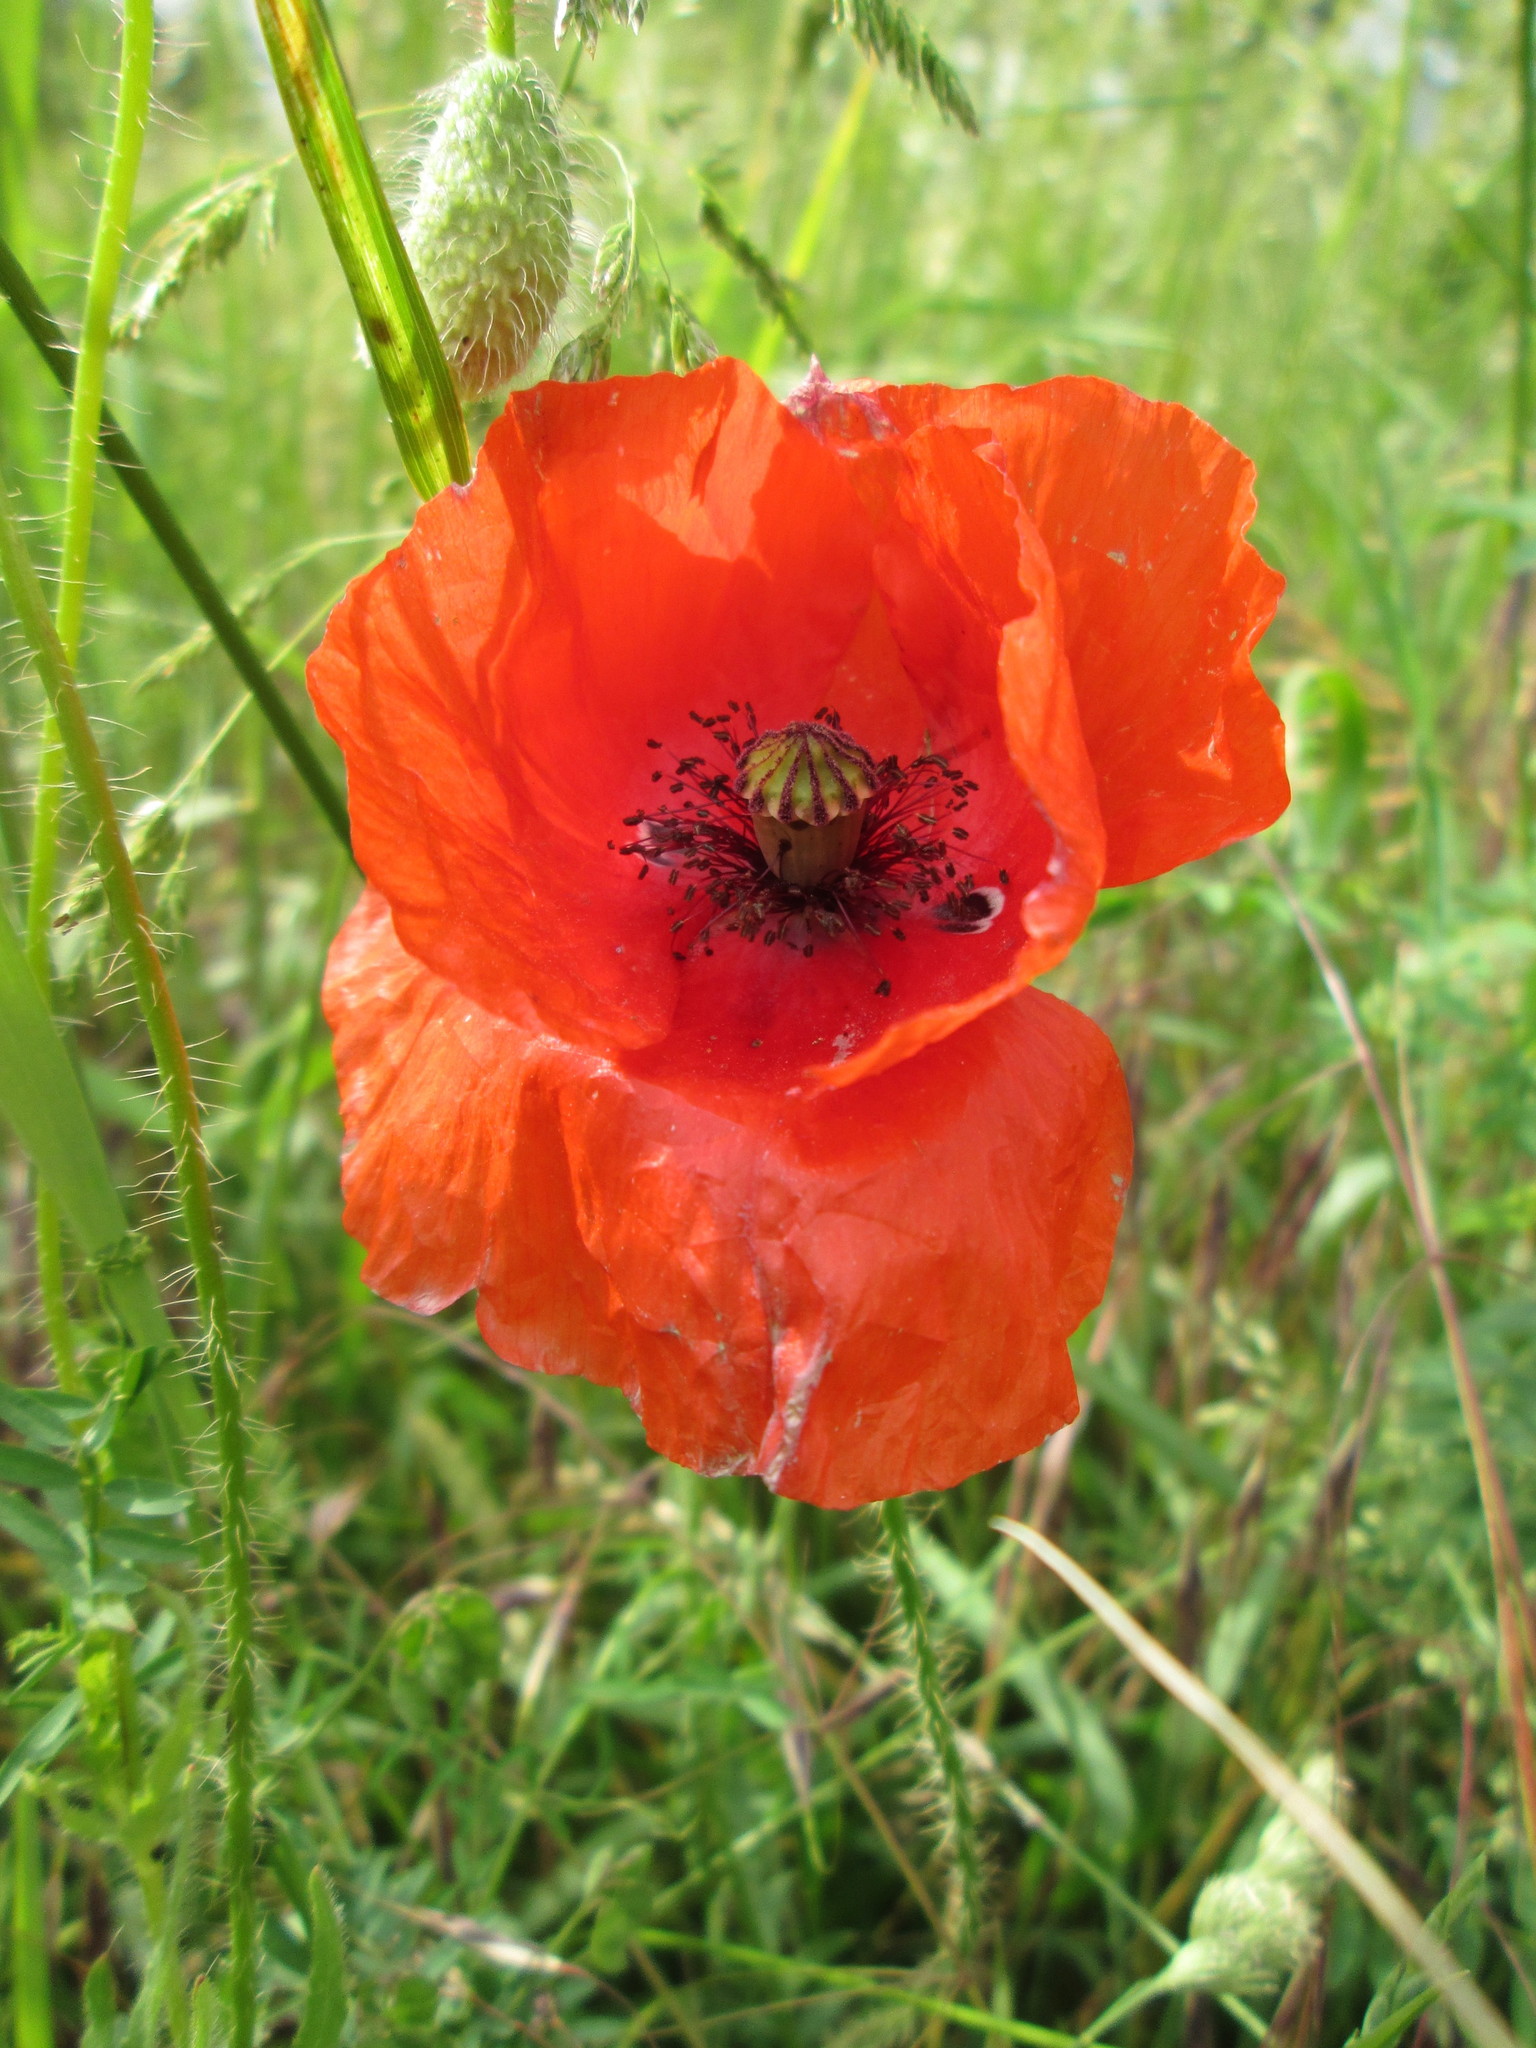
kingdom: Plantae
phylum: Tracheophyta
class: Magnoliopsida
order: Ranunculales
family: Papaveraceae
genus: Papaver
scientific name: Papaver rhoeas
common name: Corn poppy
